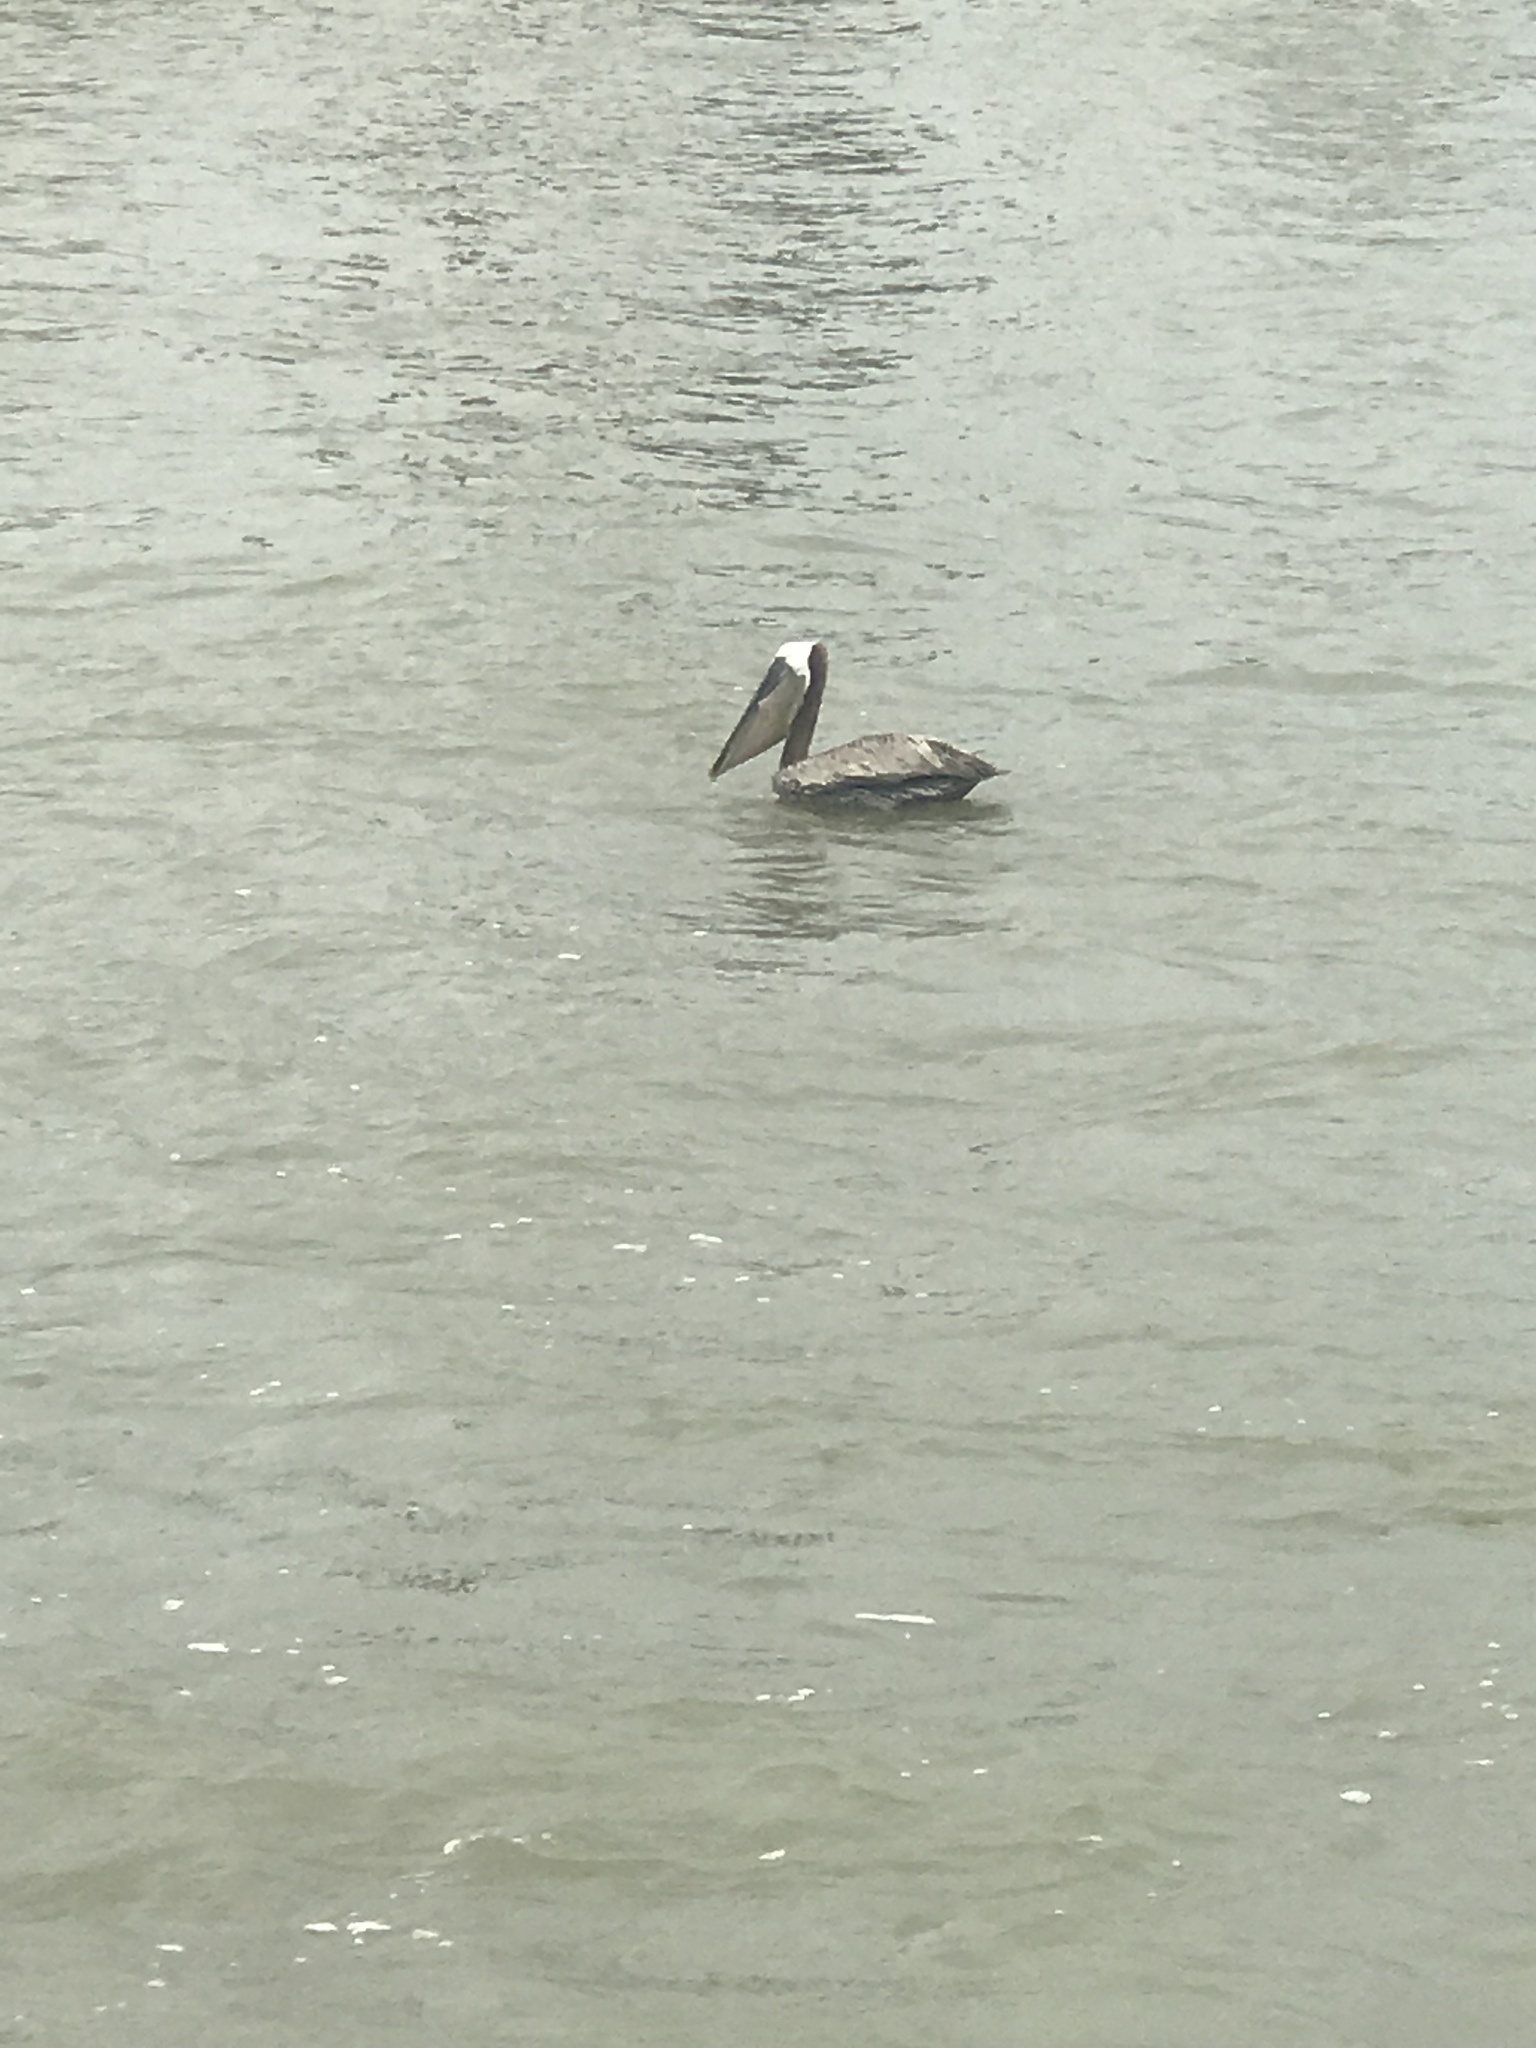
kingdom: Animalia
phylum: Chordata
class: Aves
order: Pelecaniformes
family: Pelecanidae
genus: Pelecanus
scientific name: Pelecanus occidentalis
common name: Brown pelican
